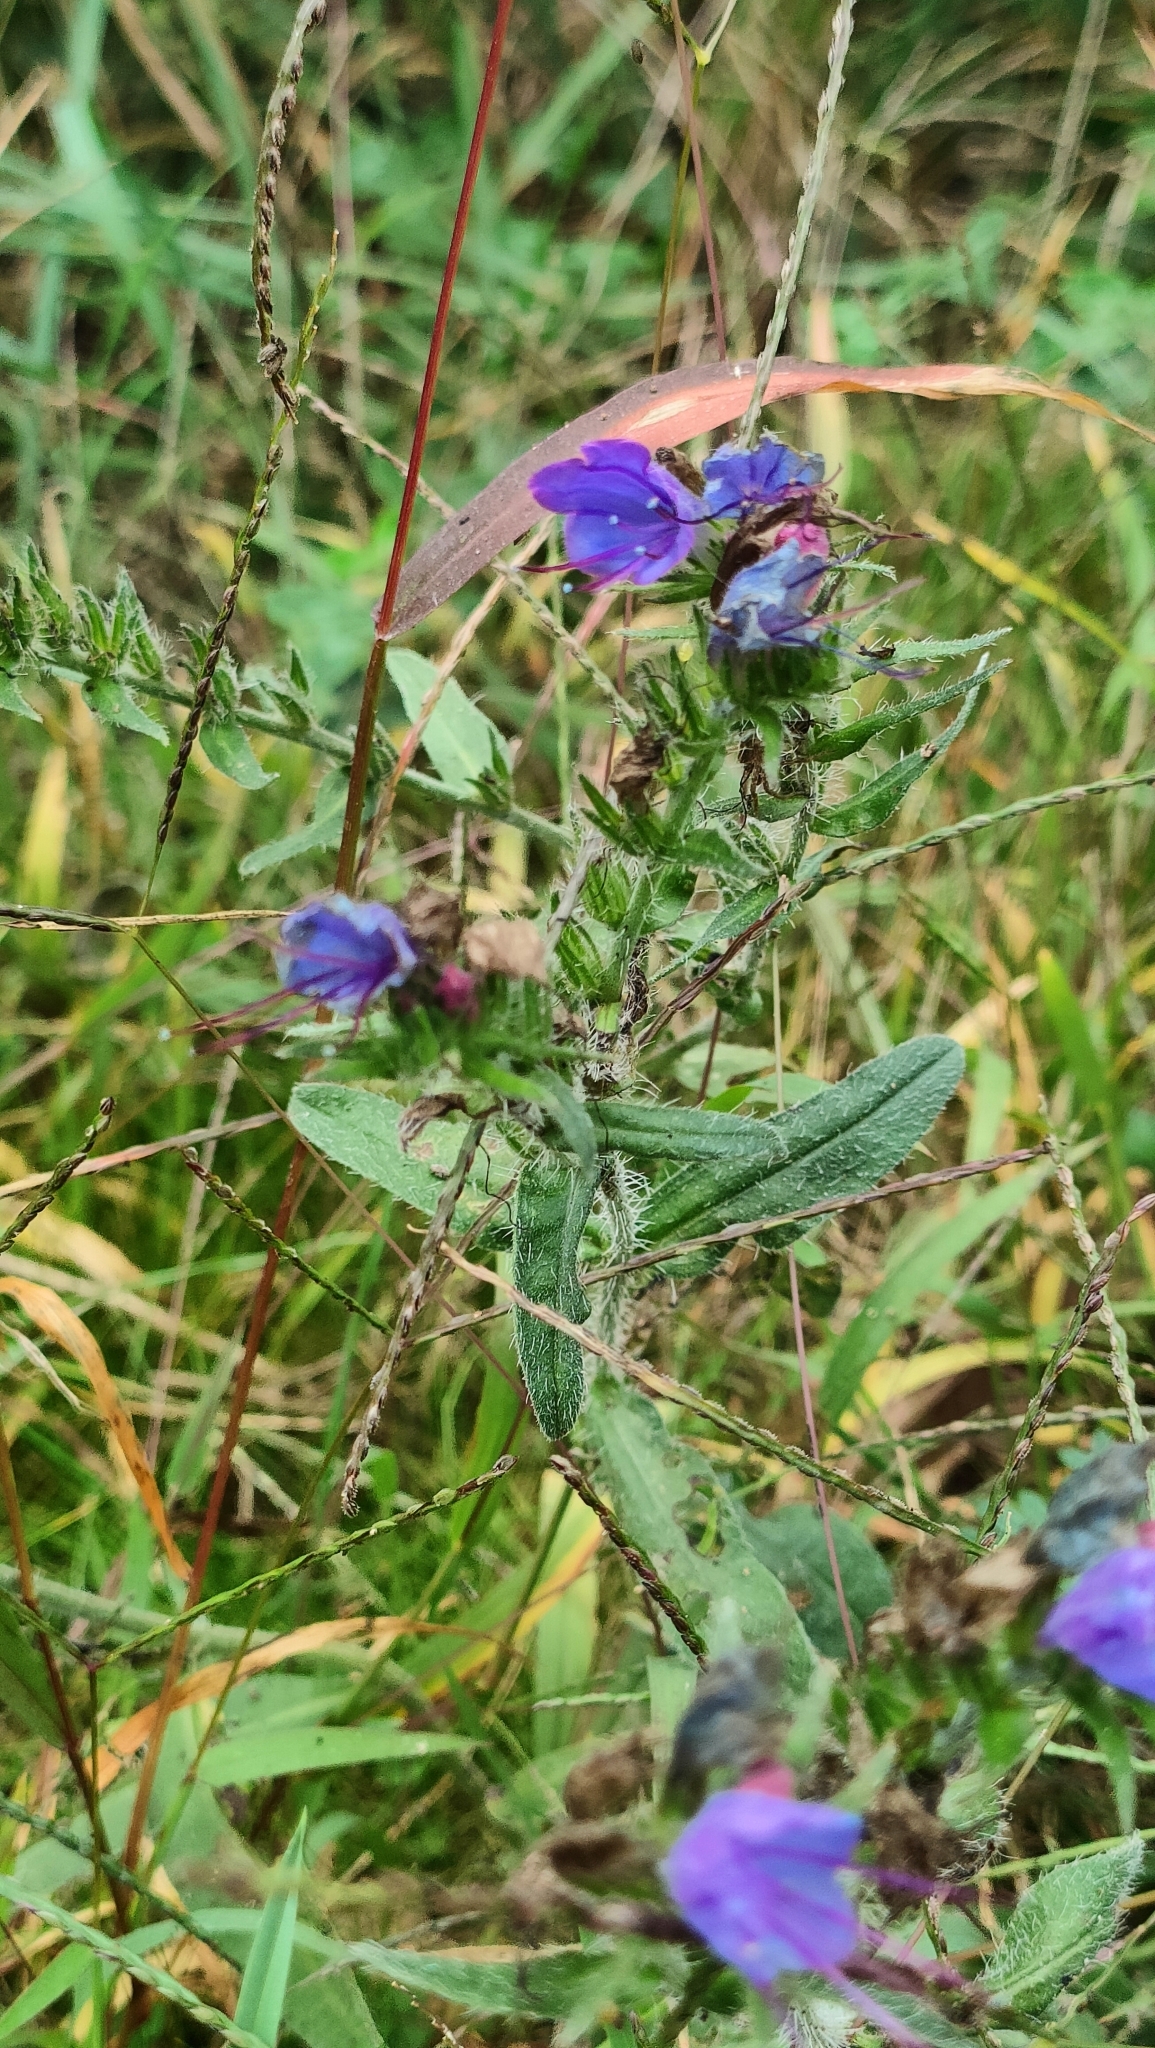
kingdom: Plantae
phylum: Tracheophyta
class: Magnoliopsida
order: Boraginales
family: Boraginaceae
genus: Echium
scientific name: Echium vulgare
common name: Common viper's bugloss
